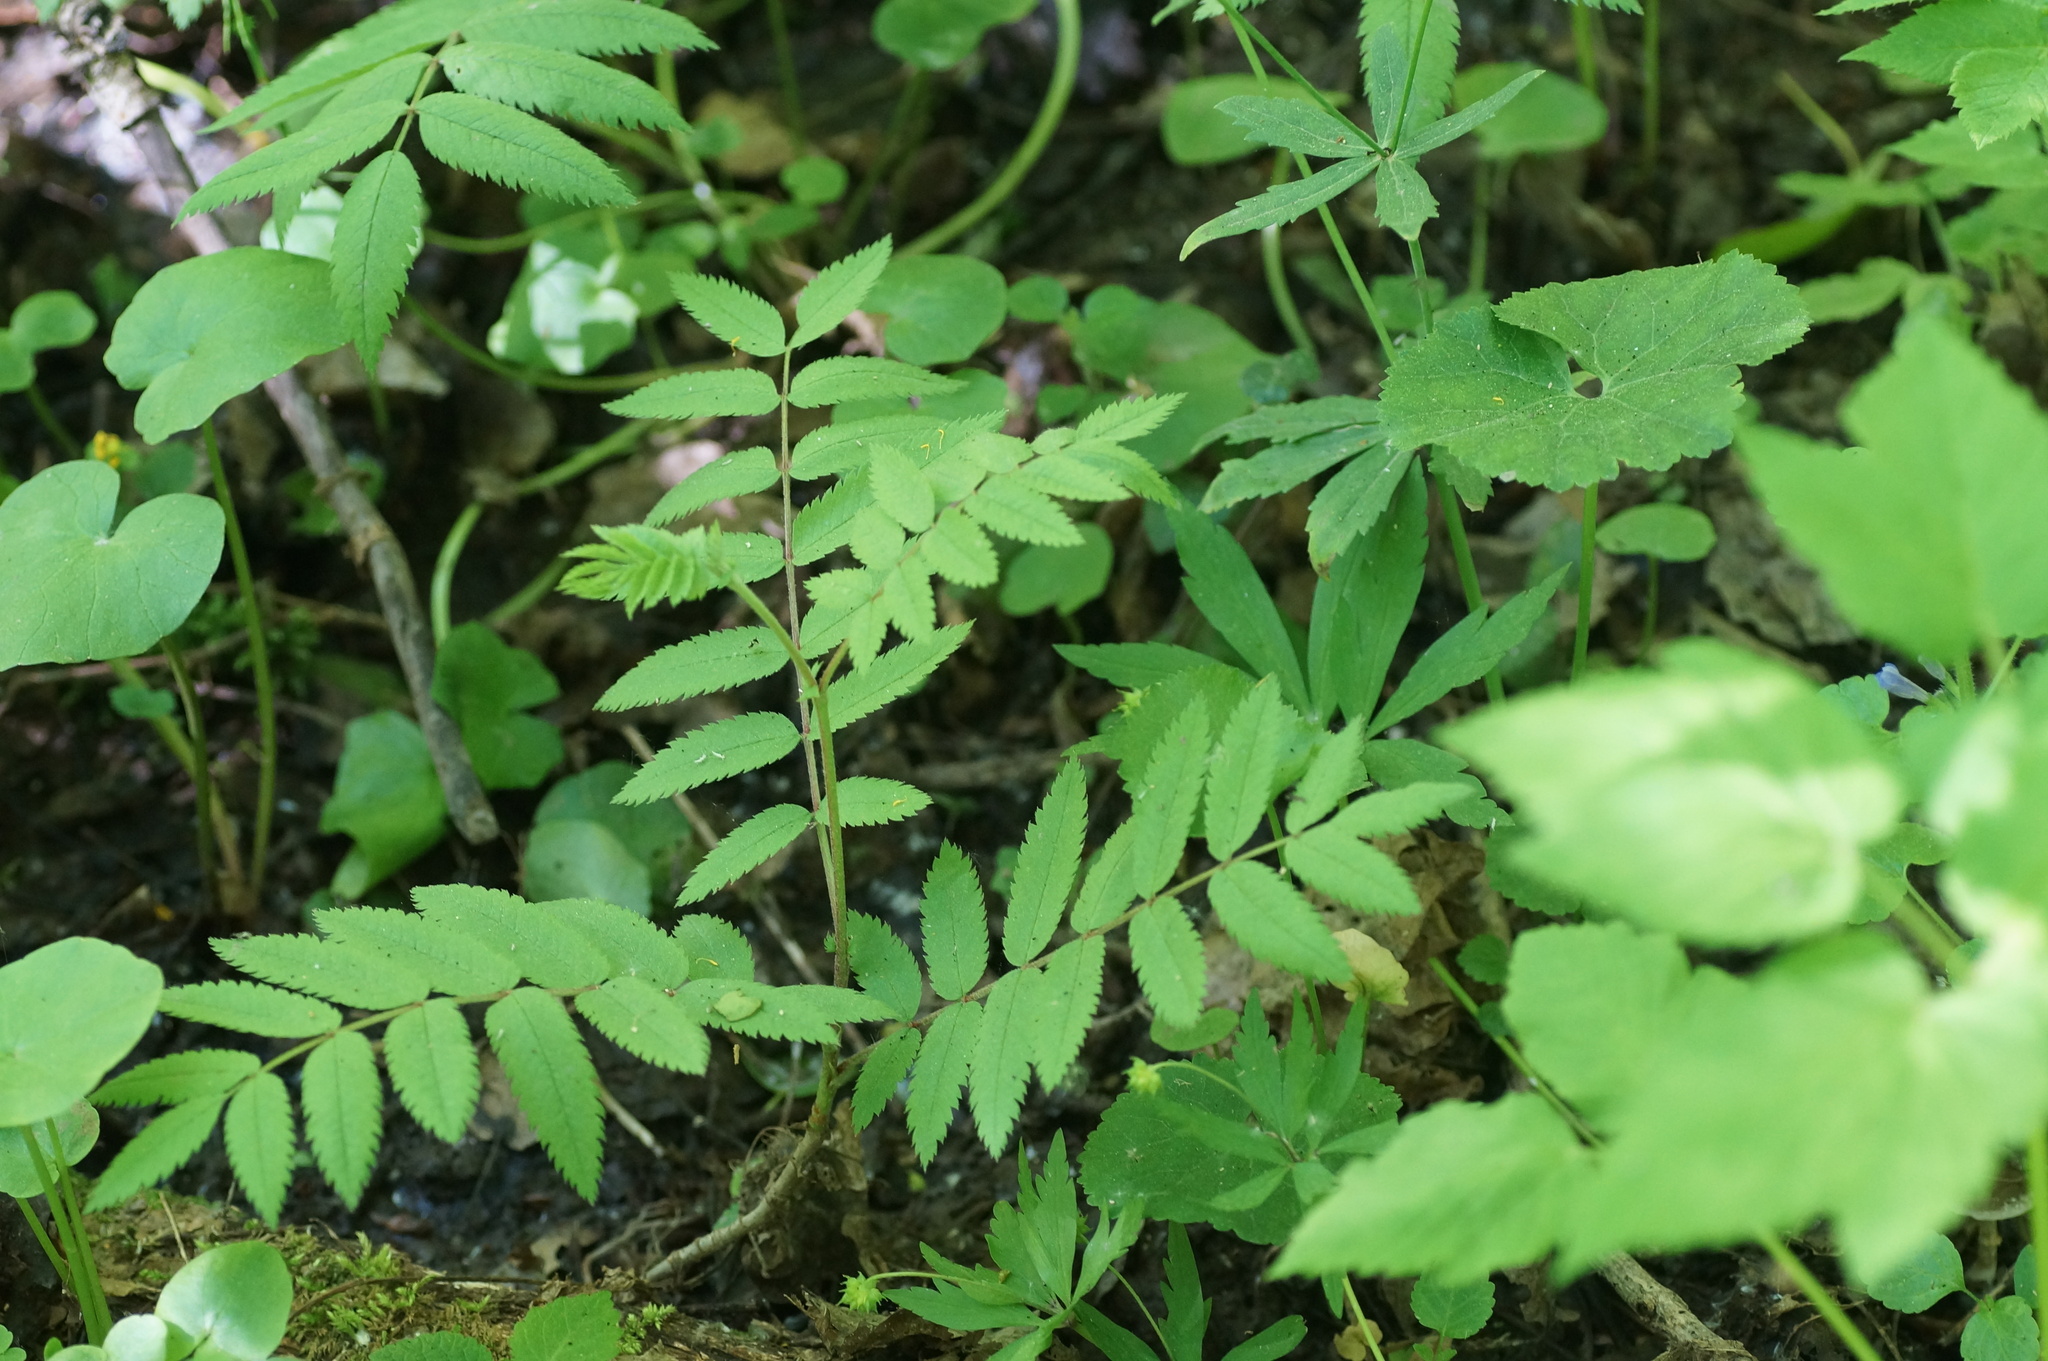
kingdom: Plantae
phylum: Tracheophyta
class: Magnoliopsida
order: Rosales
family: Rosaceae
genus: Sorbus
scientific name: Sorbus aucuparia
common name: Rowan
